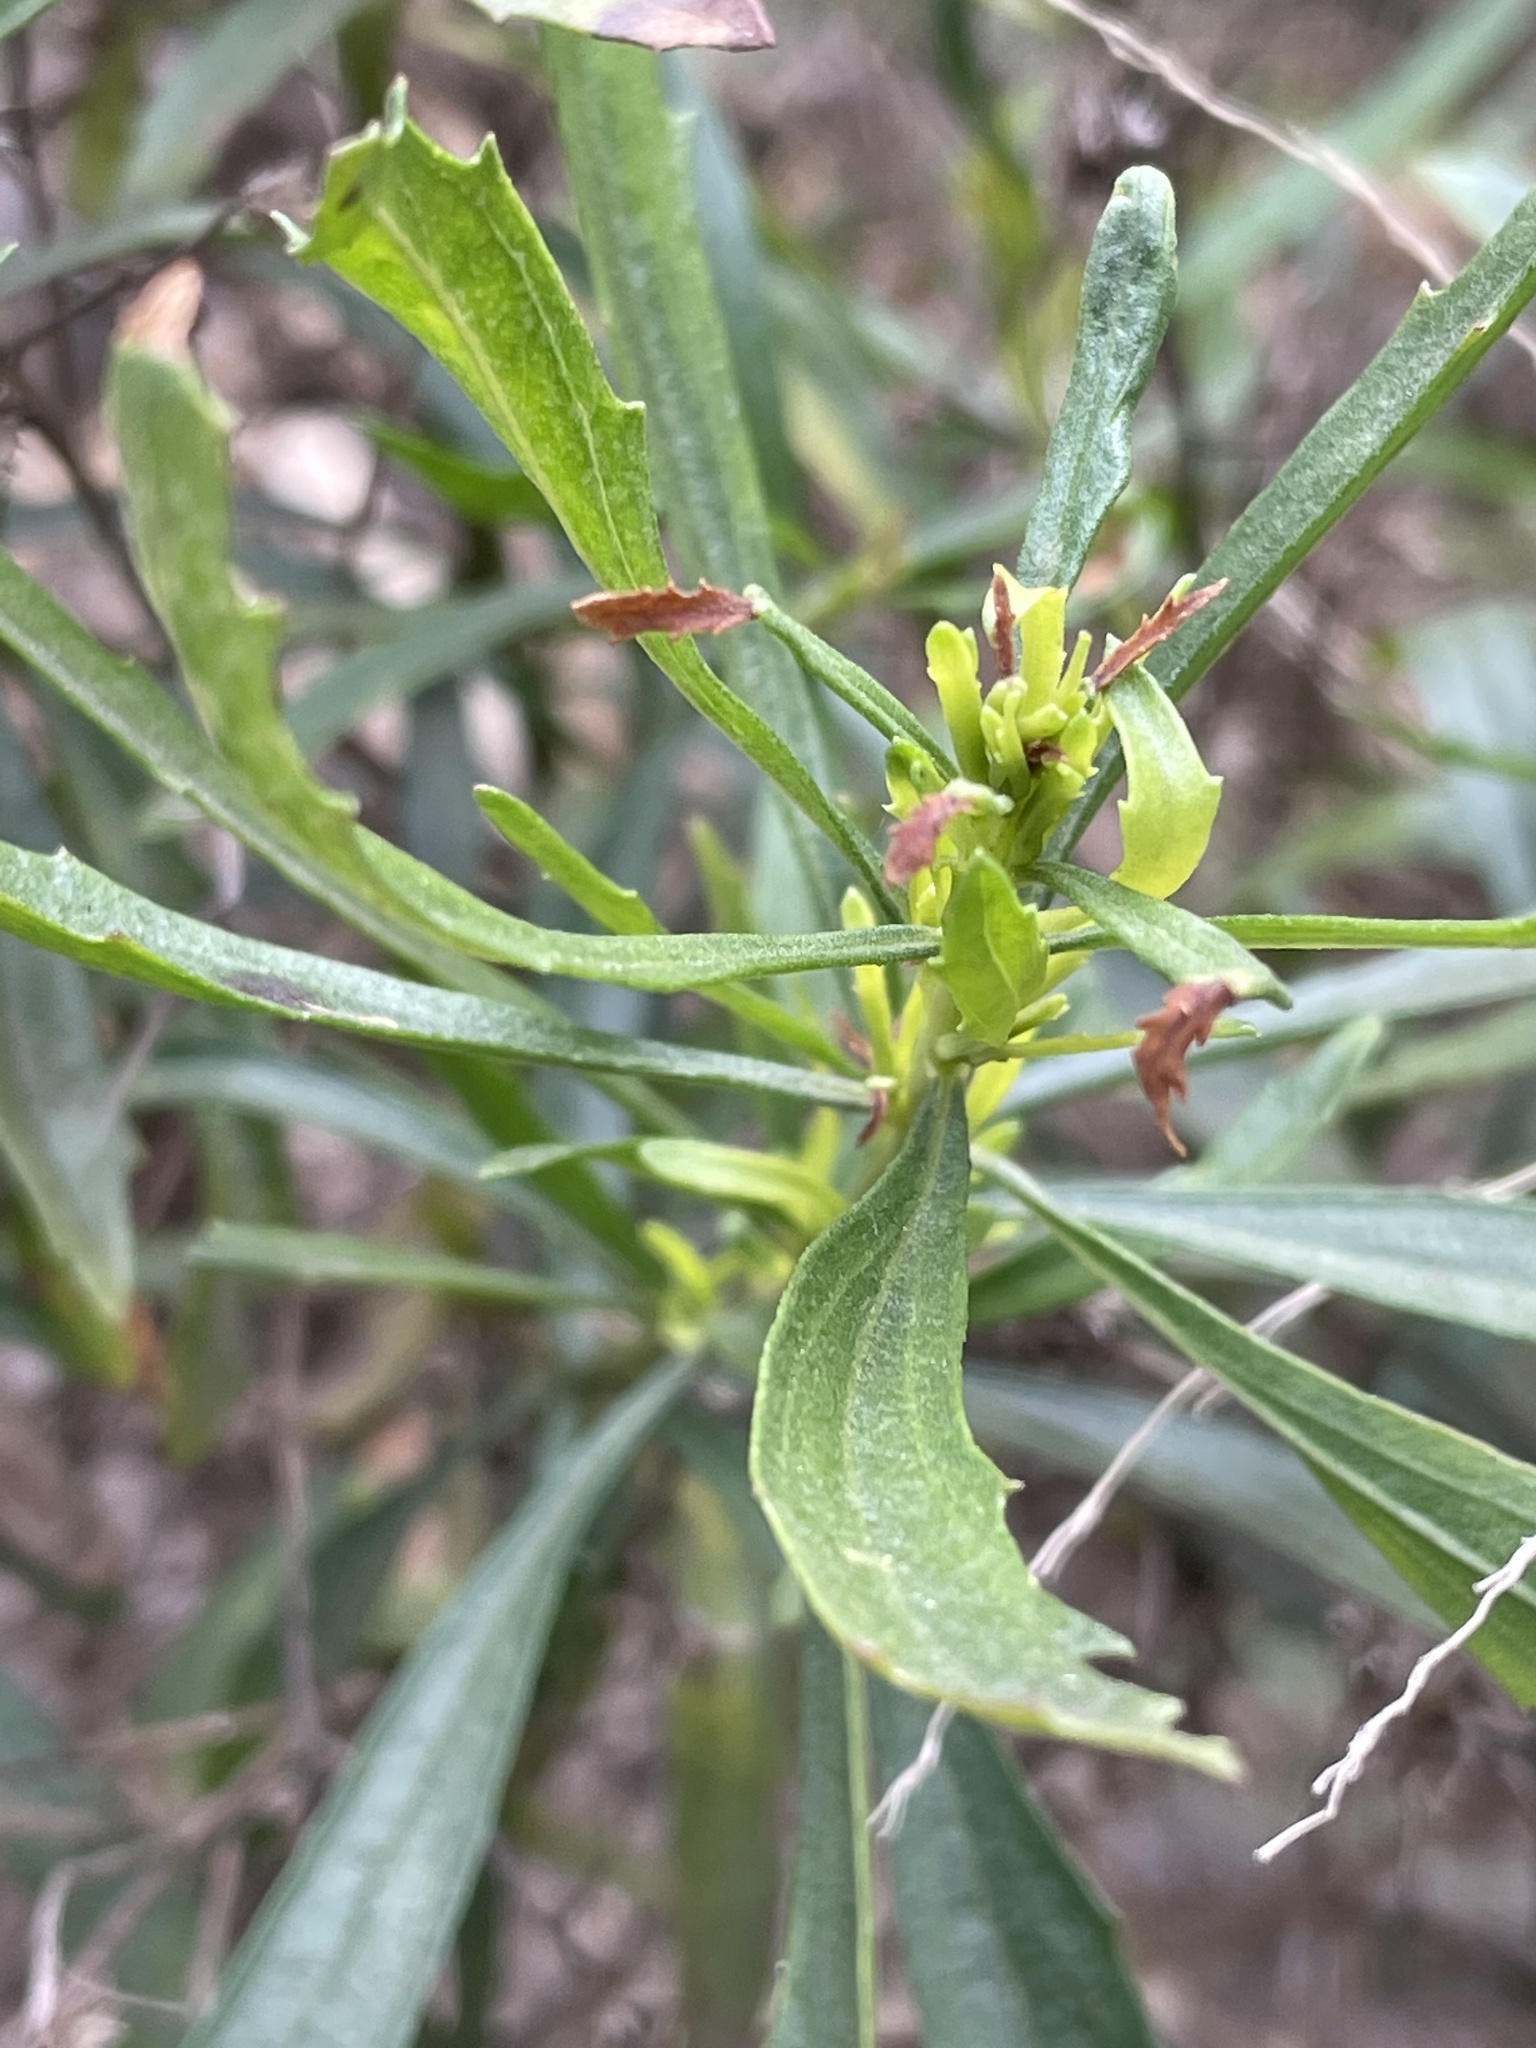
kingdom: Plantae
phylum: Tracheophyta
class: Magnoliopsida
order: Asterales
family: Asteraceae
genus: Baccharis
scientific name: Baccharis salicifolia
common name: Sticky baccharis
